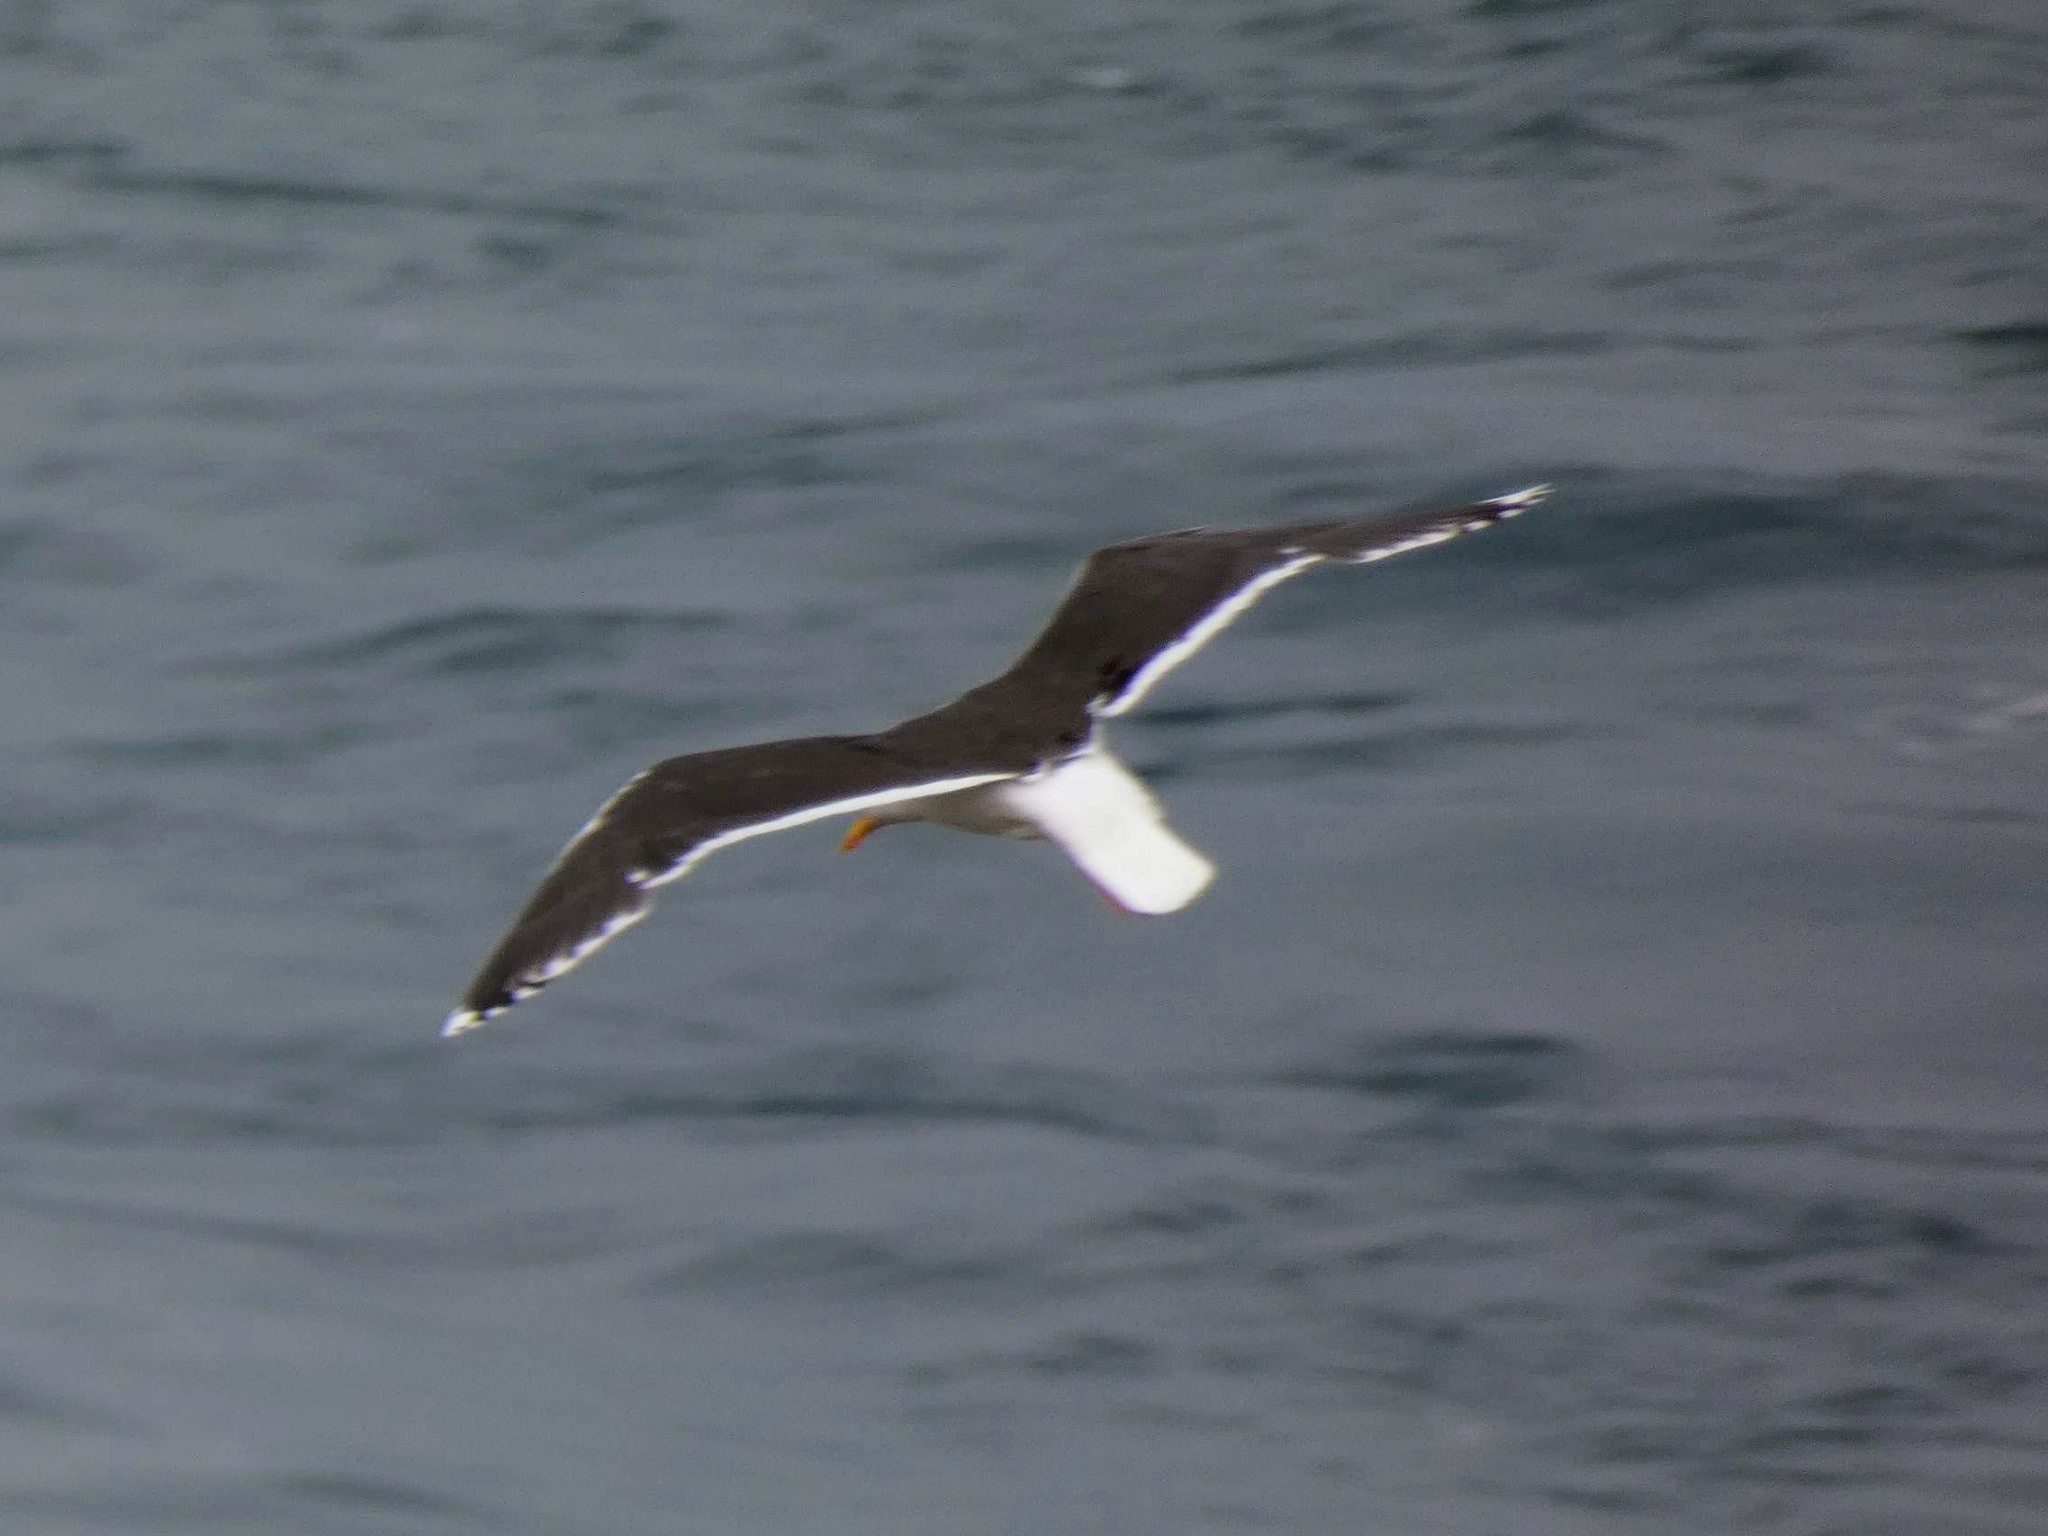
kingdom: Animalia
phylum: Chordata
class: Aves
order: Charadriiformes
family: Laridae
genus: Larus
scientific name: Larus marinus
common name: Great black-backed gull
